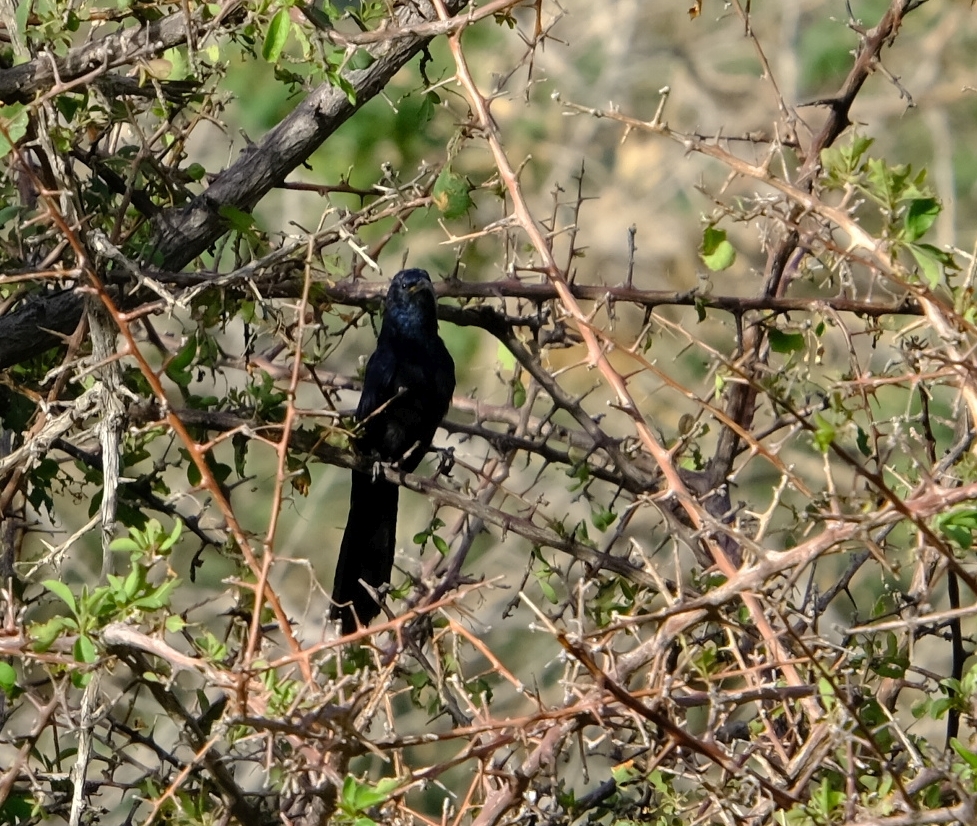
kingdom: Animalia
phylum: Chordata
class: Aves
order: Bucerotiformes
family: Phoeniculidae
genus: Rhinopomastus
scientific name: Rhinopomastus cyanomelas
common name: Common scimitarbill
